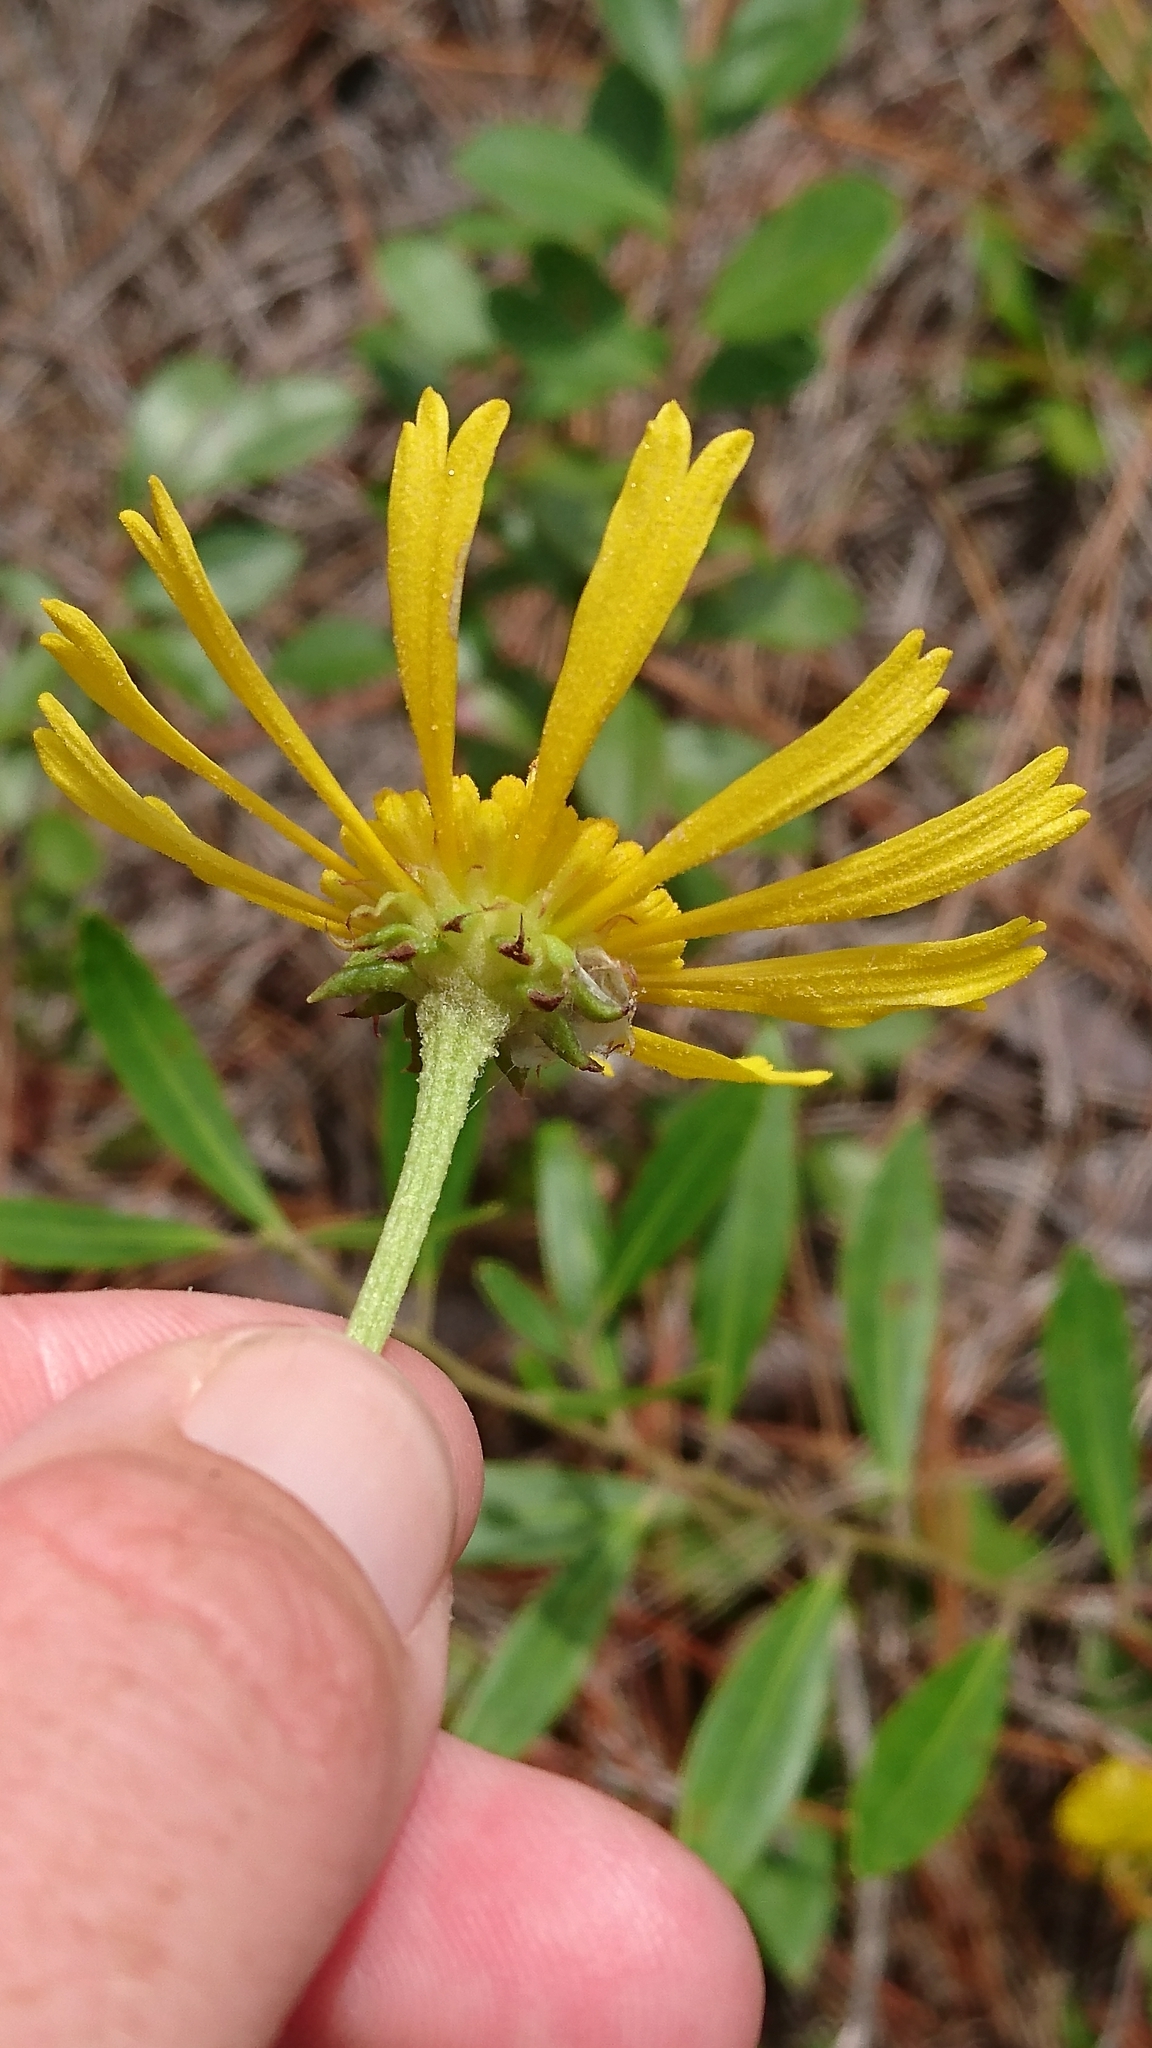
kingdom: Plantae
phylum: Tracheophyta
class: Magnoliopsida
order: Asterales
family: Asteraceae
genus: Balduina
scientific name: Balduina uniflora
